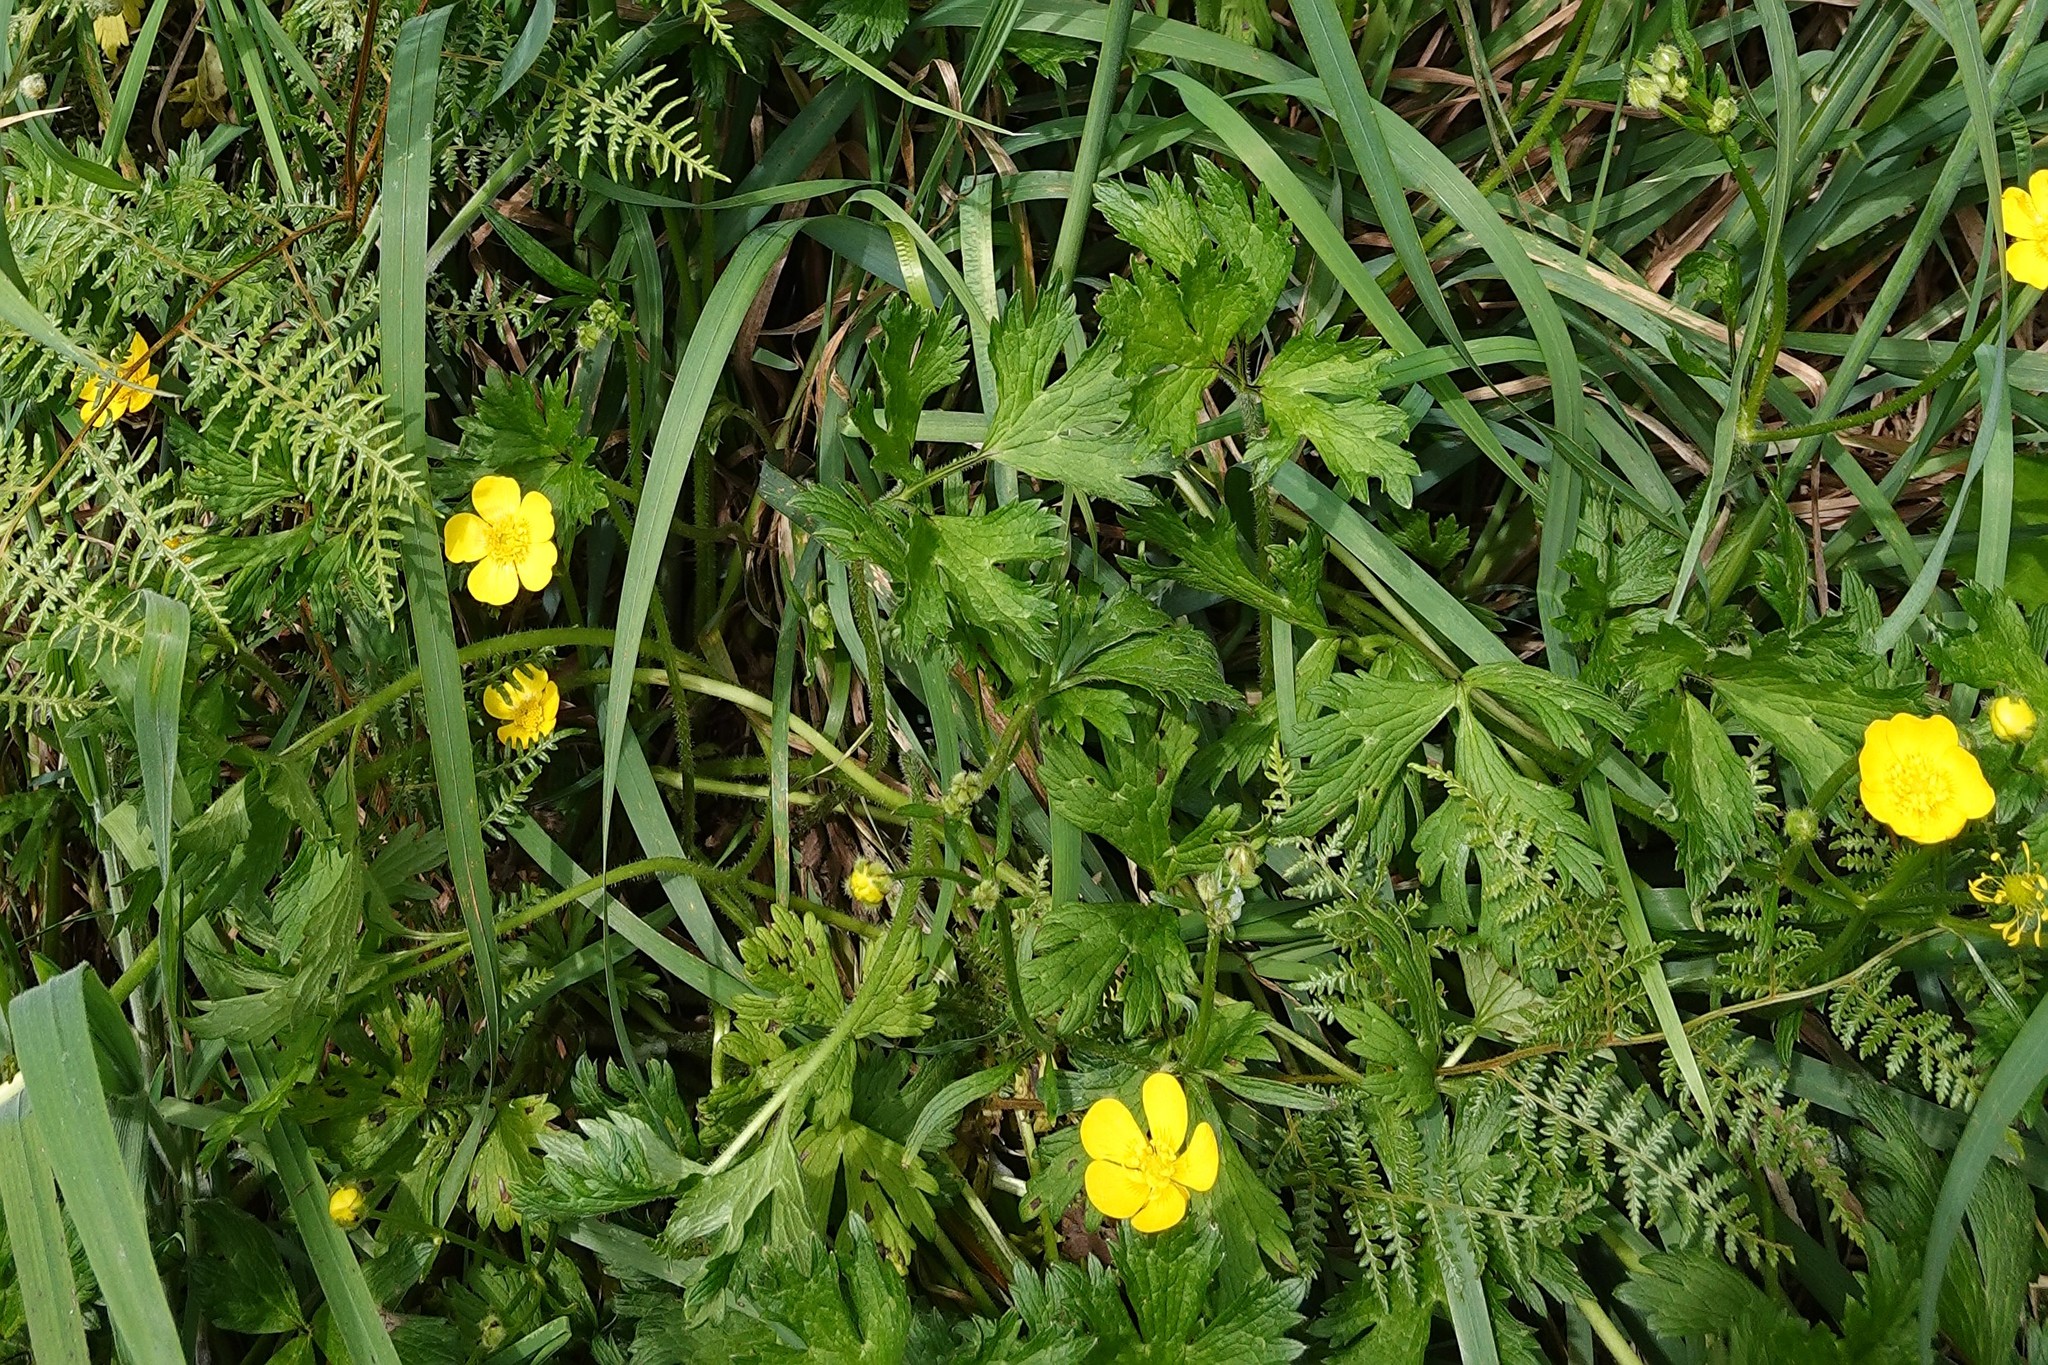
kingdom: Plantae
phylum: Tracheophyta
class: Magnoliopsida
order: Ranunculales
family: Ranunculaceae
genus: Ranunculus
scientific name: Ranunculus repens
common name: Creeping buttercup
